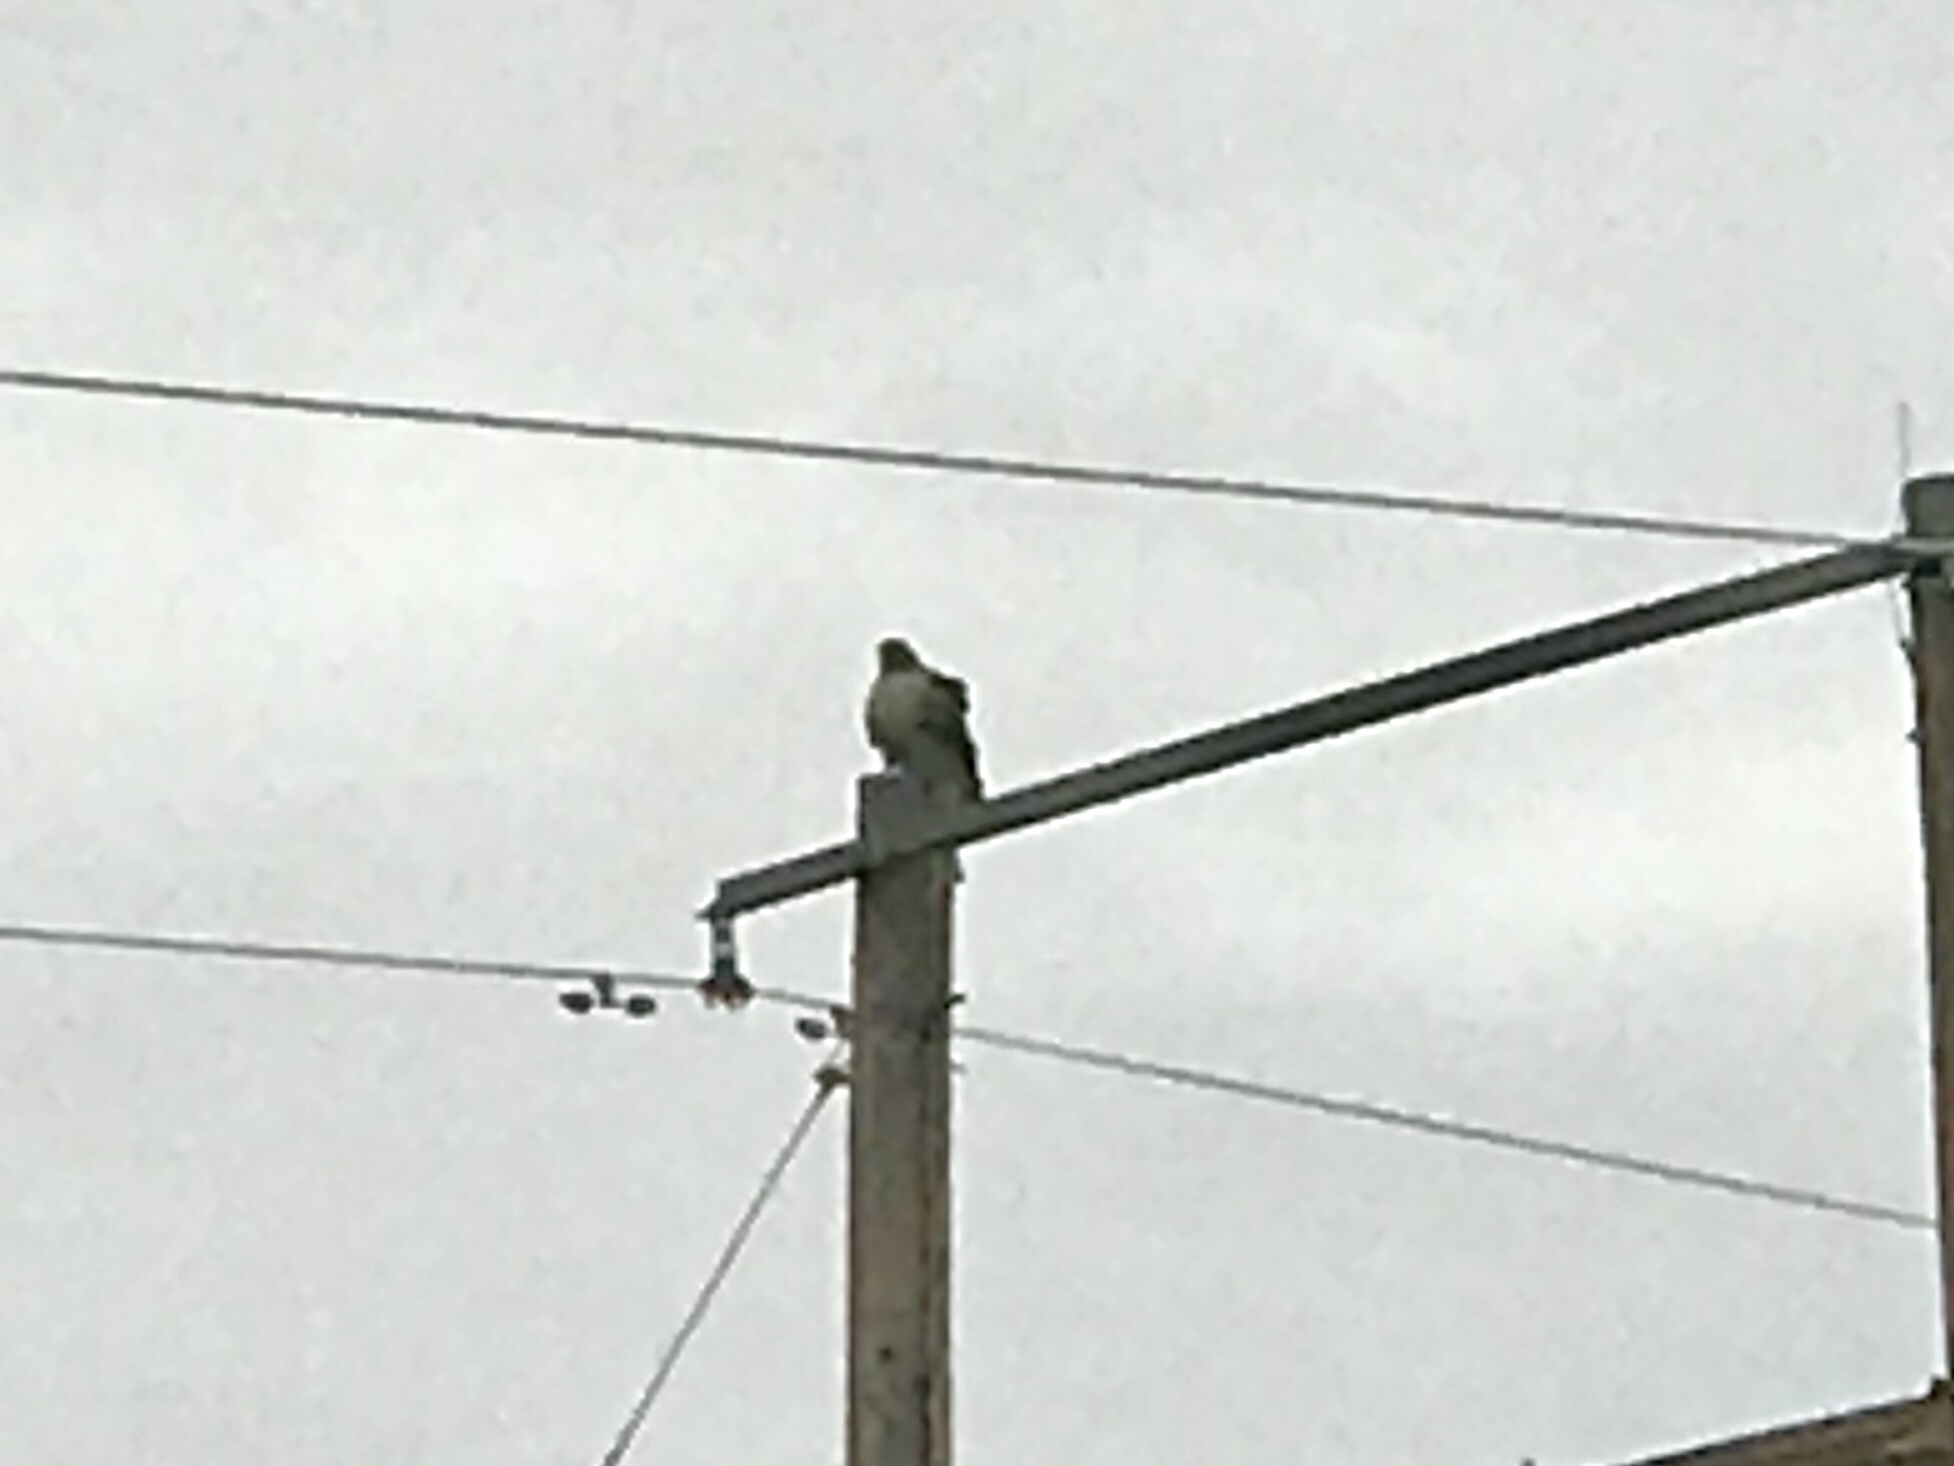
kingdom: Animalia
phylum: Chordata
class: Aves
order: Accipitriformes
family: Accipitridae
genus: Buteo
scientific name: Buteo jamaicensis
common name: Red-tailed hawk
